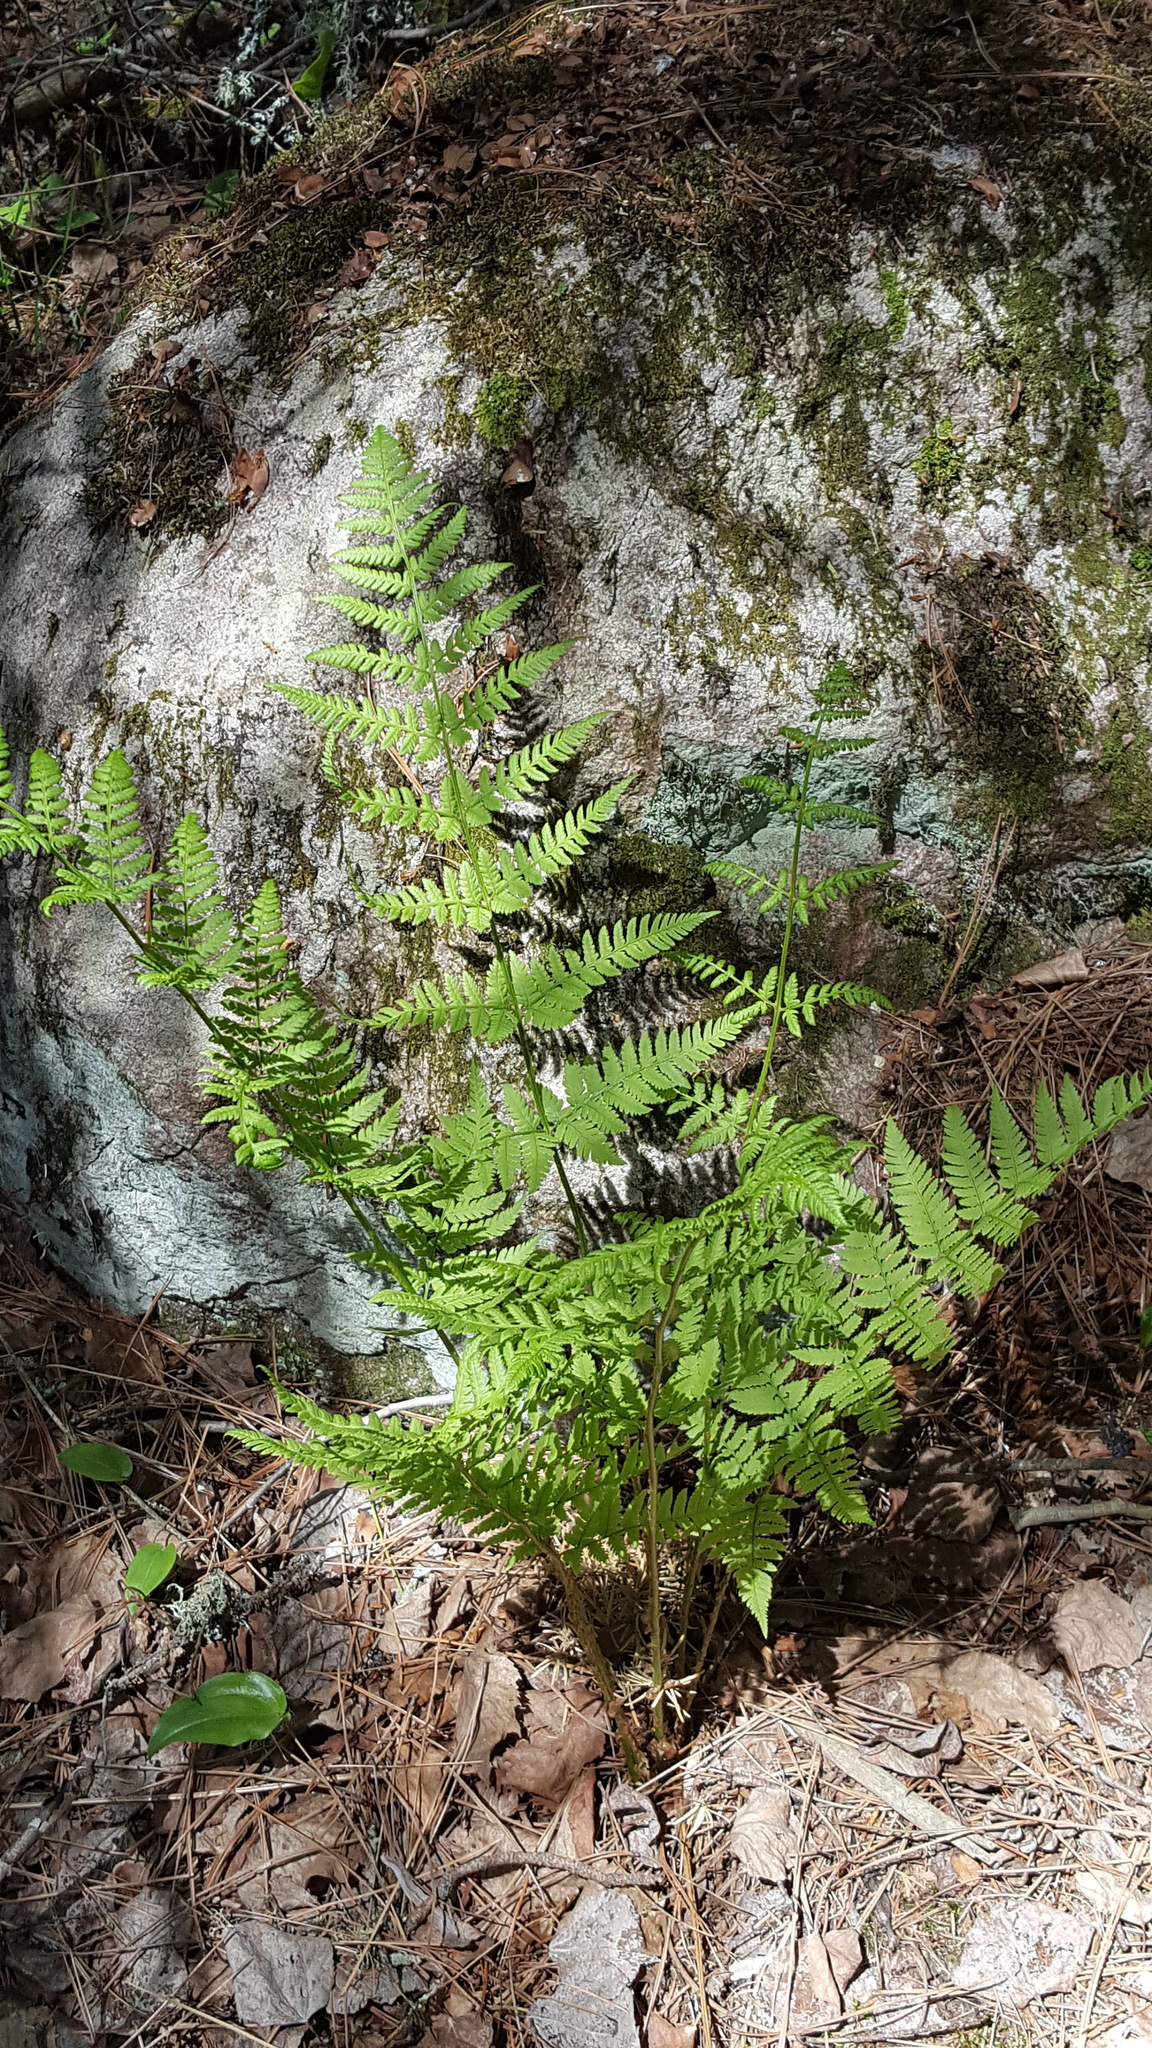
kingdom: Plantae
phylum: Tracheophyta
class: Polypodiopsida
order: Polypodiales
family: Dryopteridaceae
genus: Dryopteris
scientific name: Dryopteris carthusiana
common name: Narrow buckler-fern
